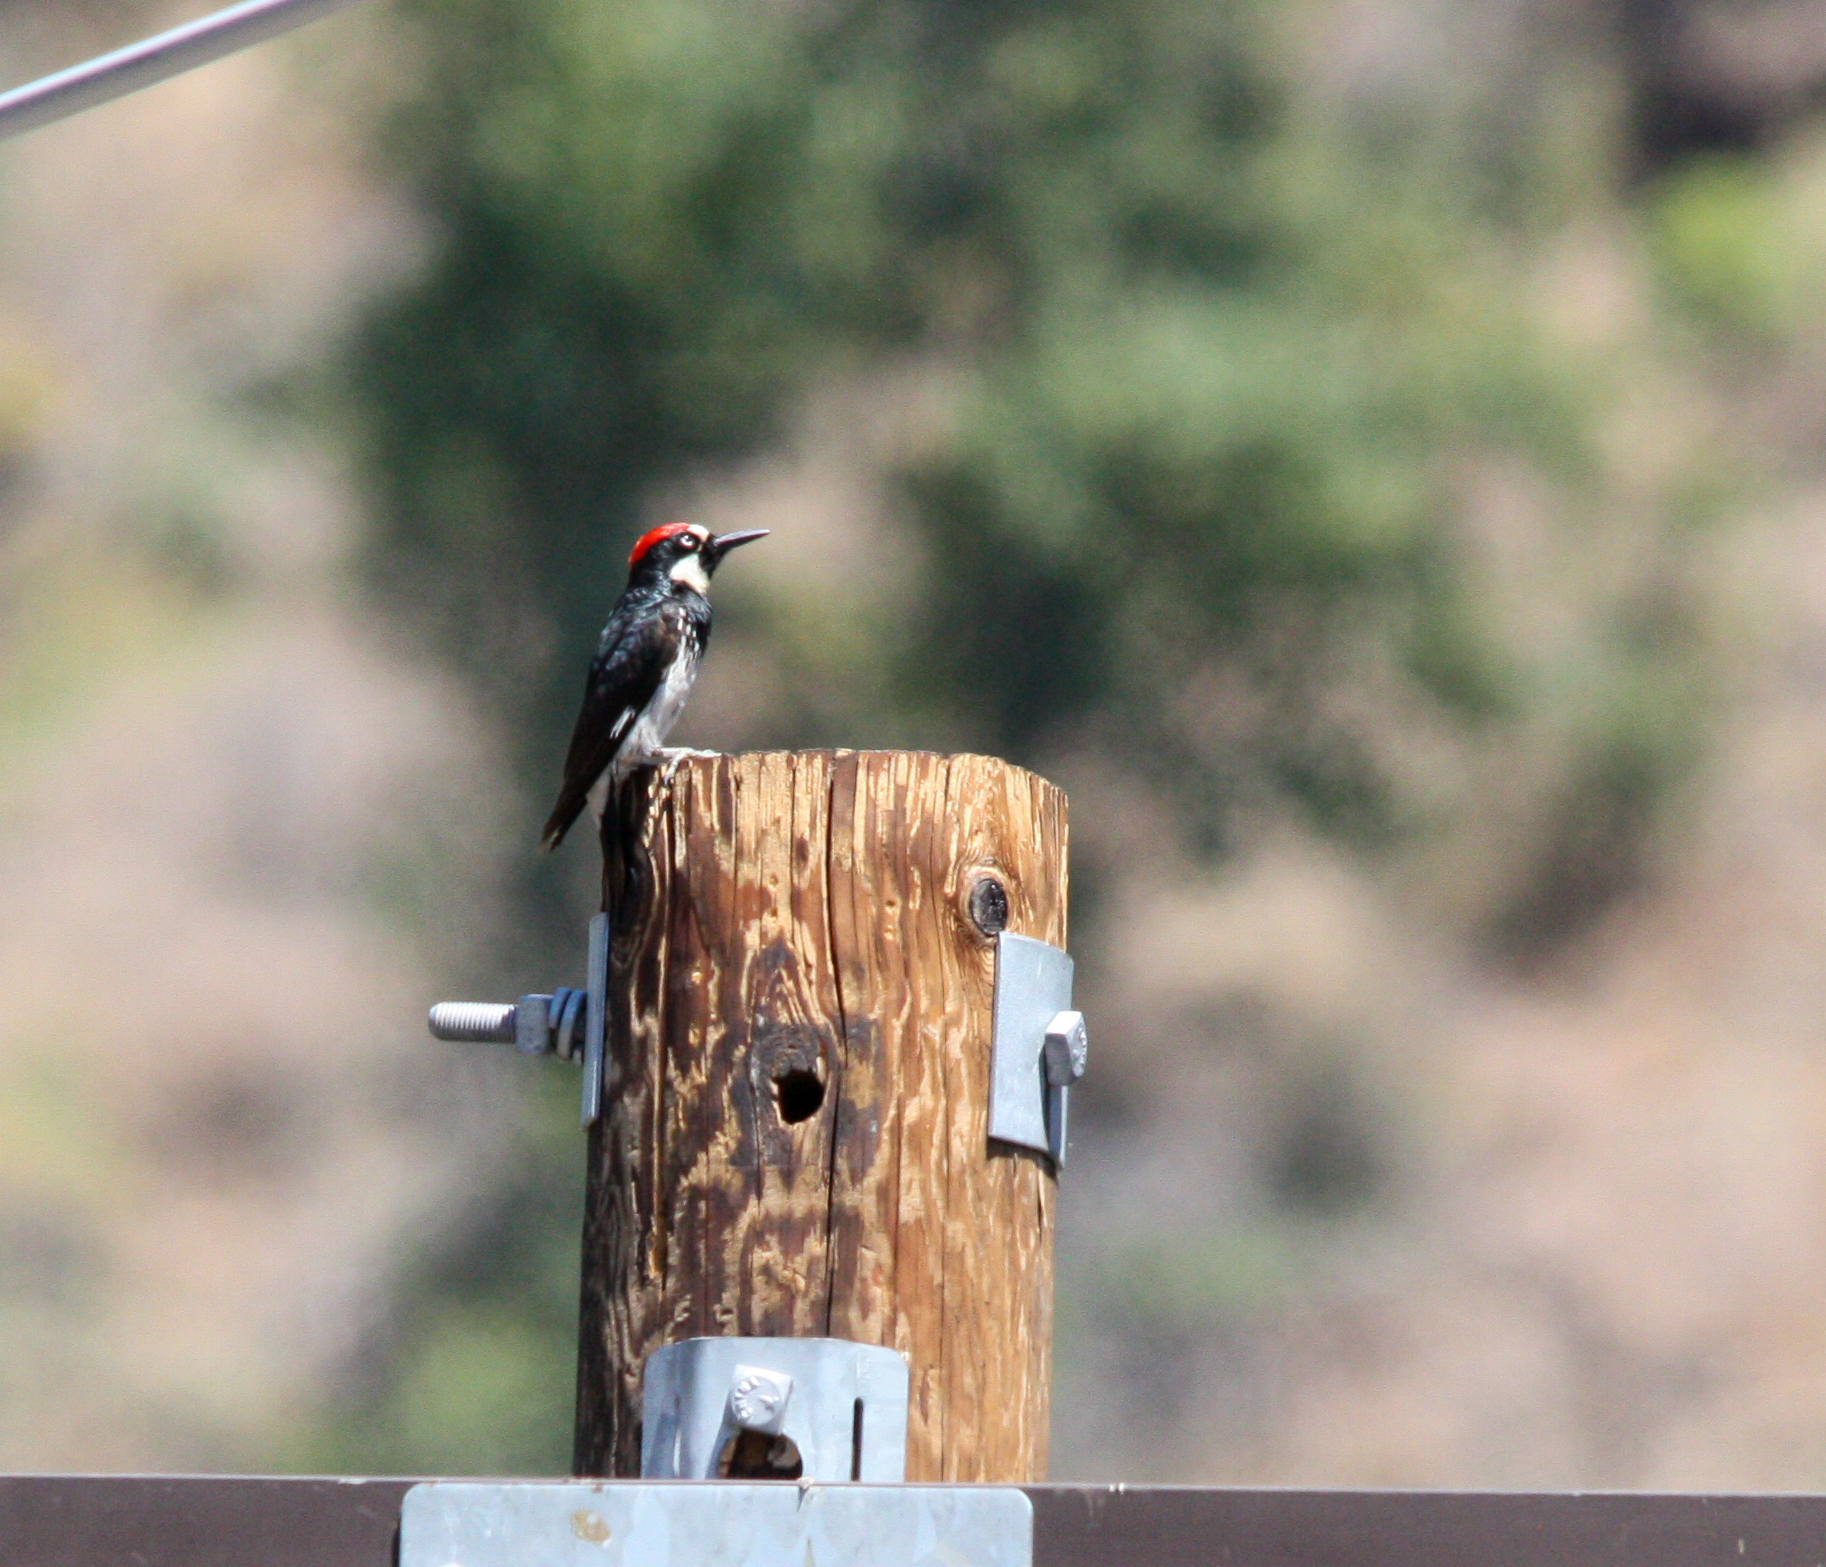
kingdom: Animalia
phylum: Chordata
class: Aves
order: Piciformes
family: Picidae
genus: Melanerpes
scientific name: Melanerpes formicivorus
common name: Acorn woodpecker
